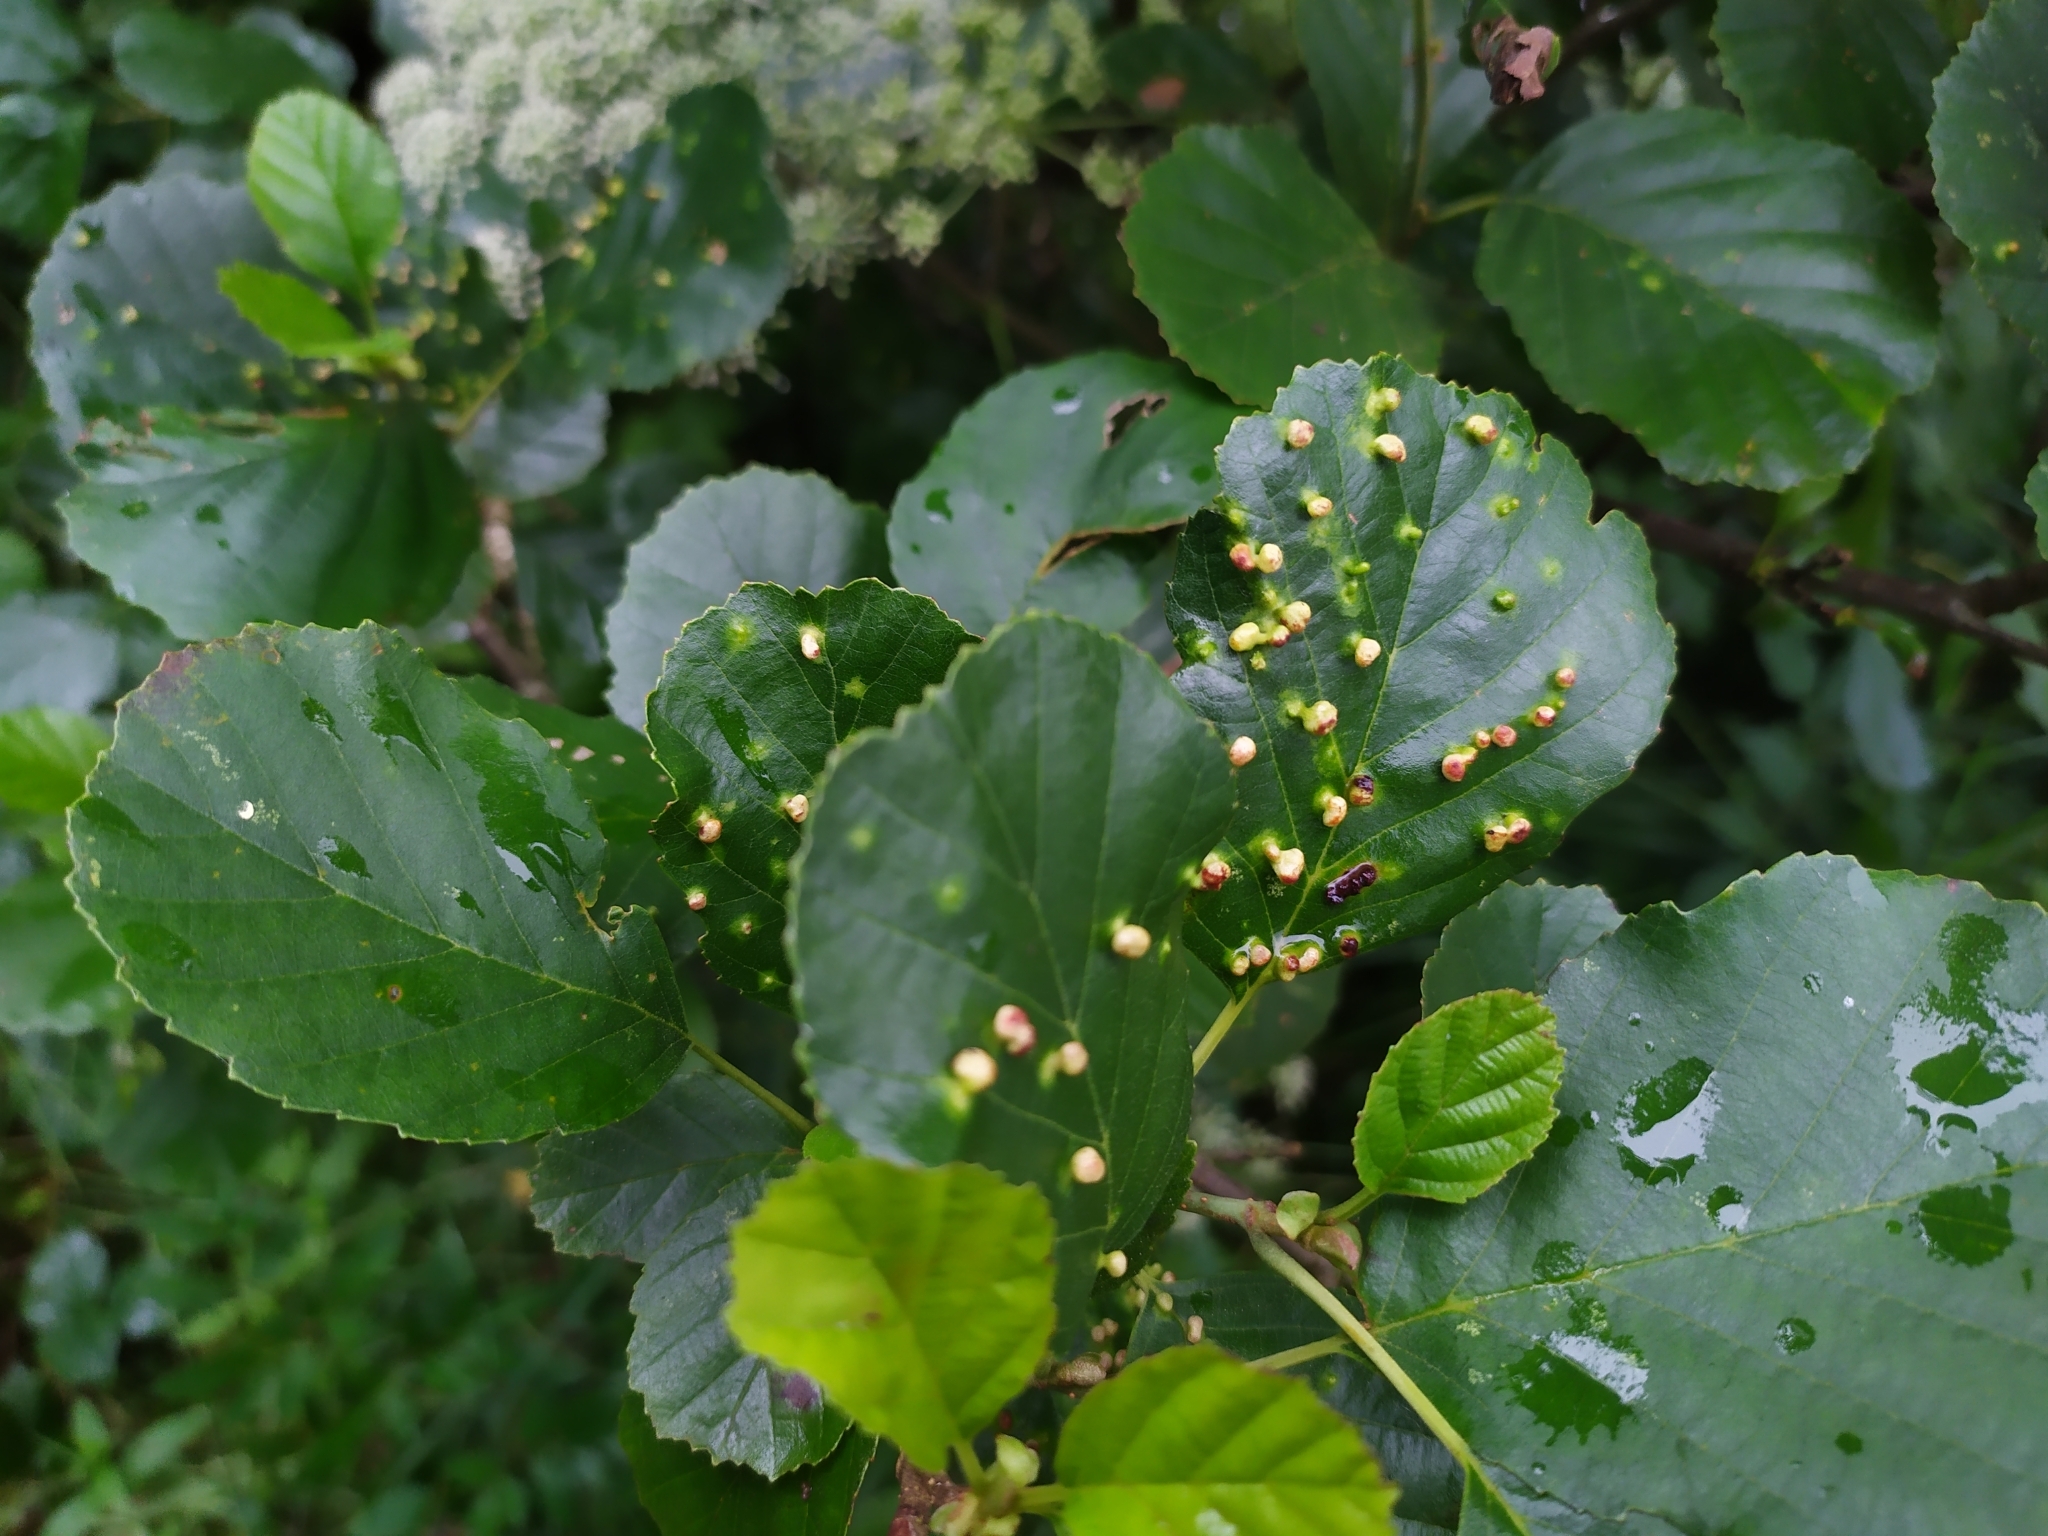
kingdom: Animalia
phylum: Arthropoda
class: Arachnida
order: Trombidiformes
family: Eriophyidae
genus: Eriophyes
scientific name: Eriophyes laevis
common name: Alder leaf gall mite
